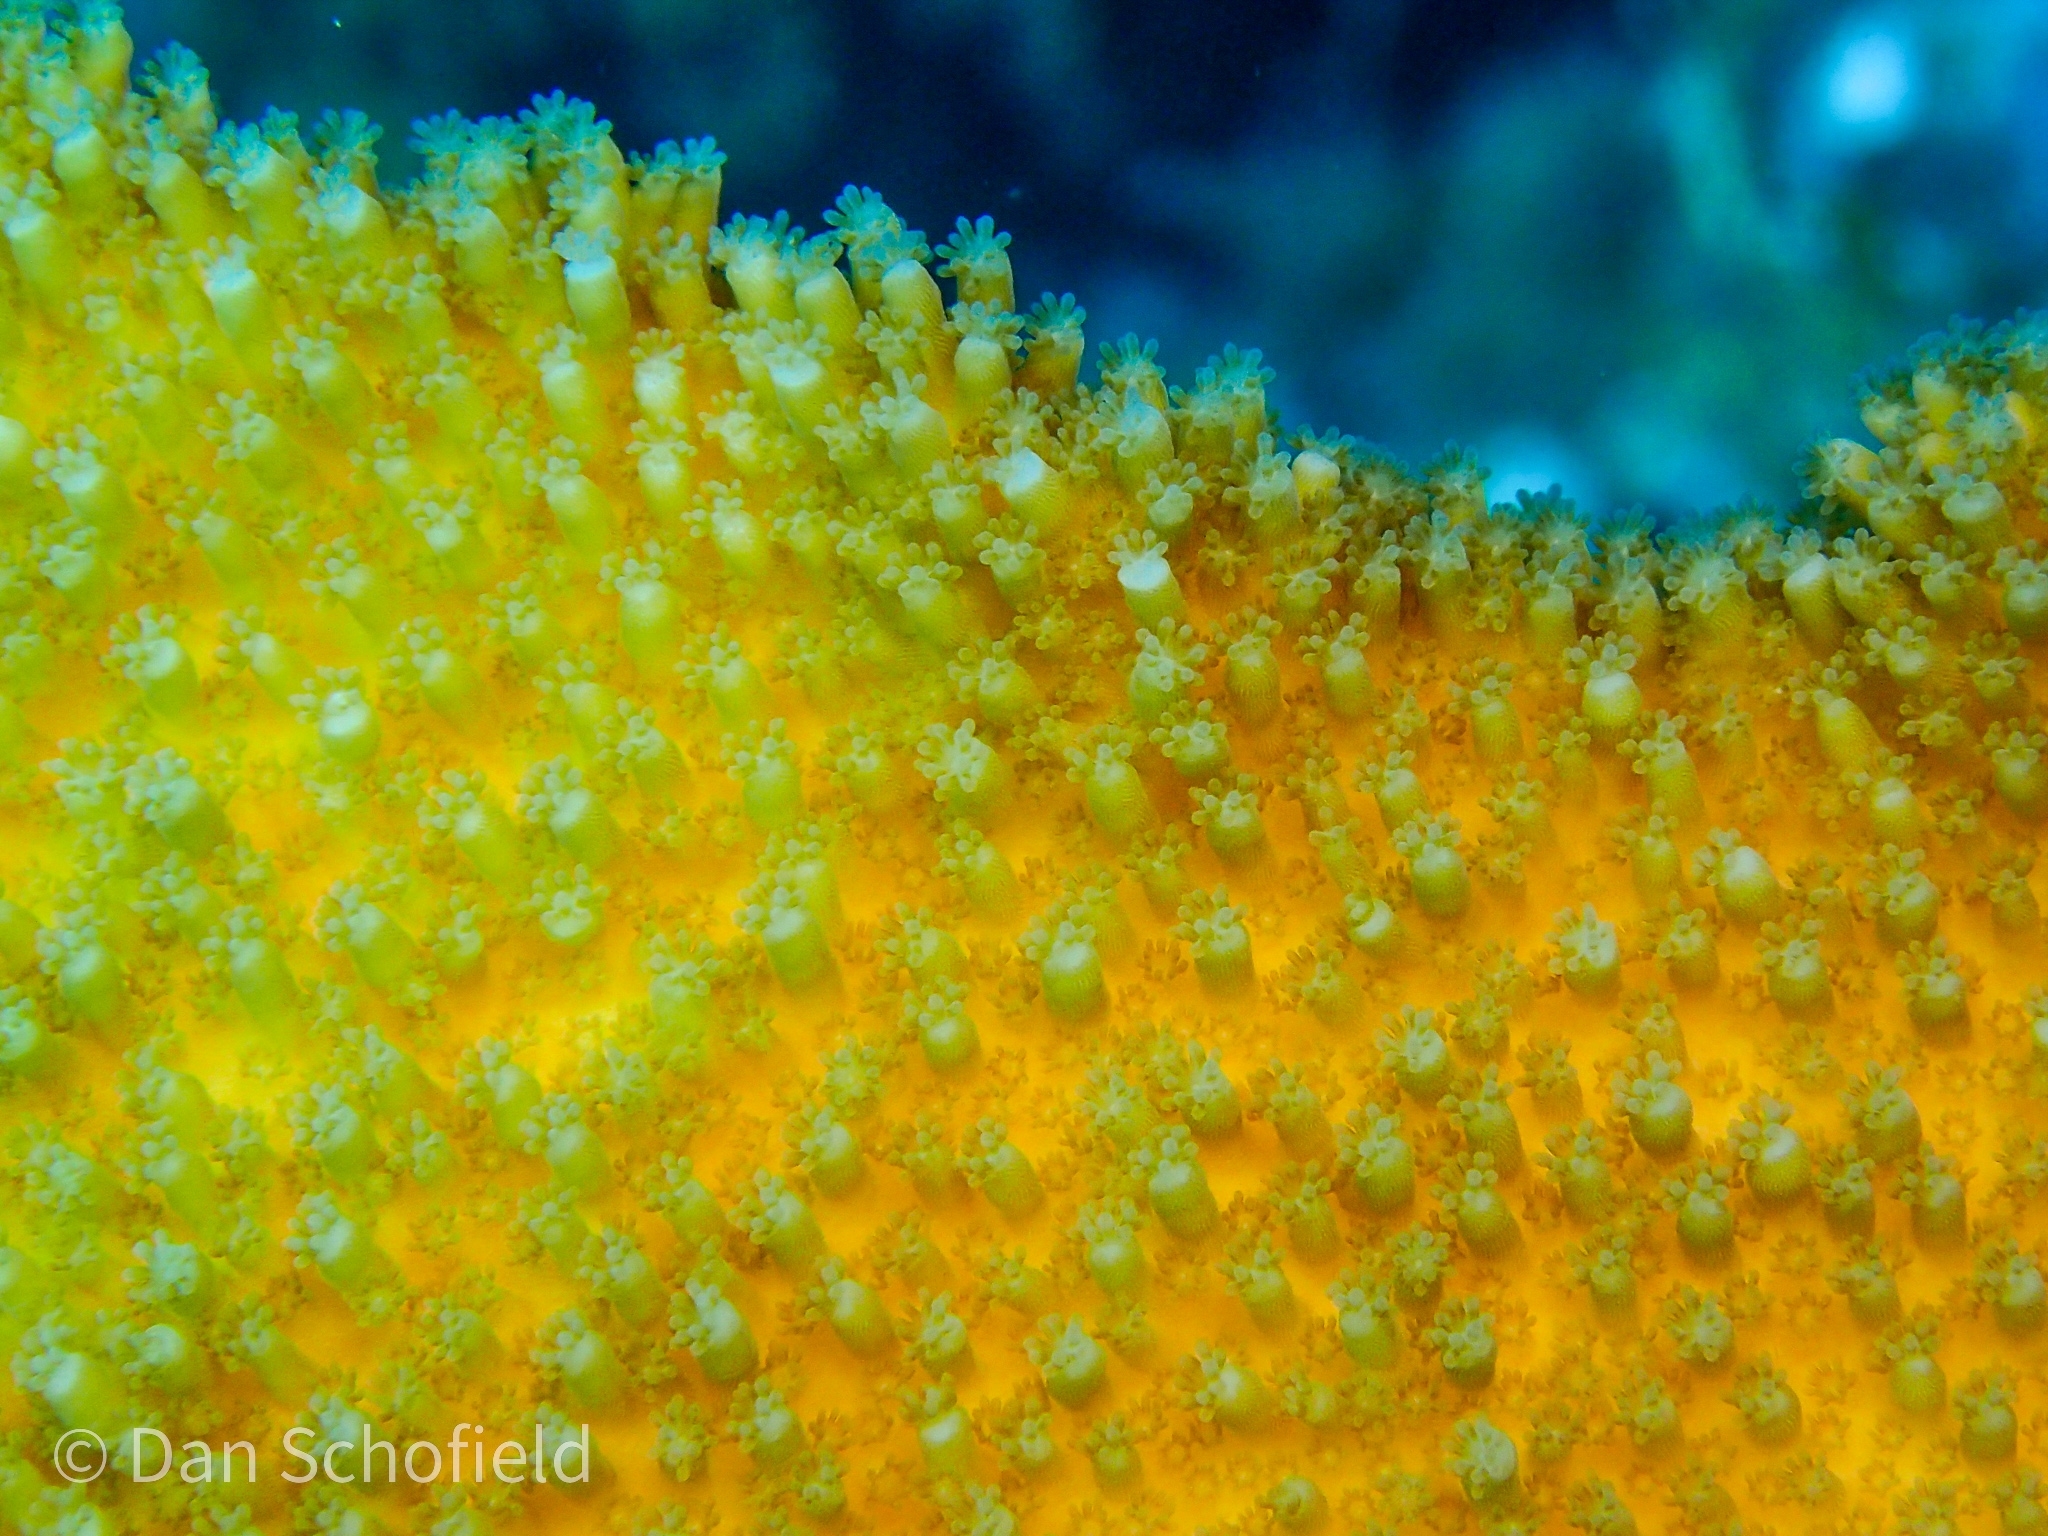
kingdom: Animalia
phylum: Cnidaria
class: Anthozoa
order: Scleractinia
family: Acroporidae
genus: Acropora
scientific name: Acropora palmata
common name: Elkhorn coral
